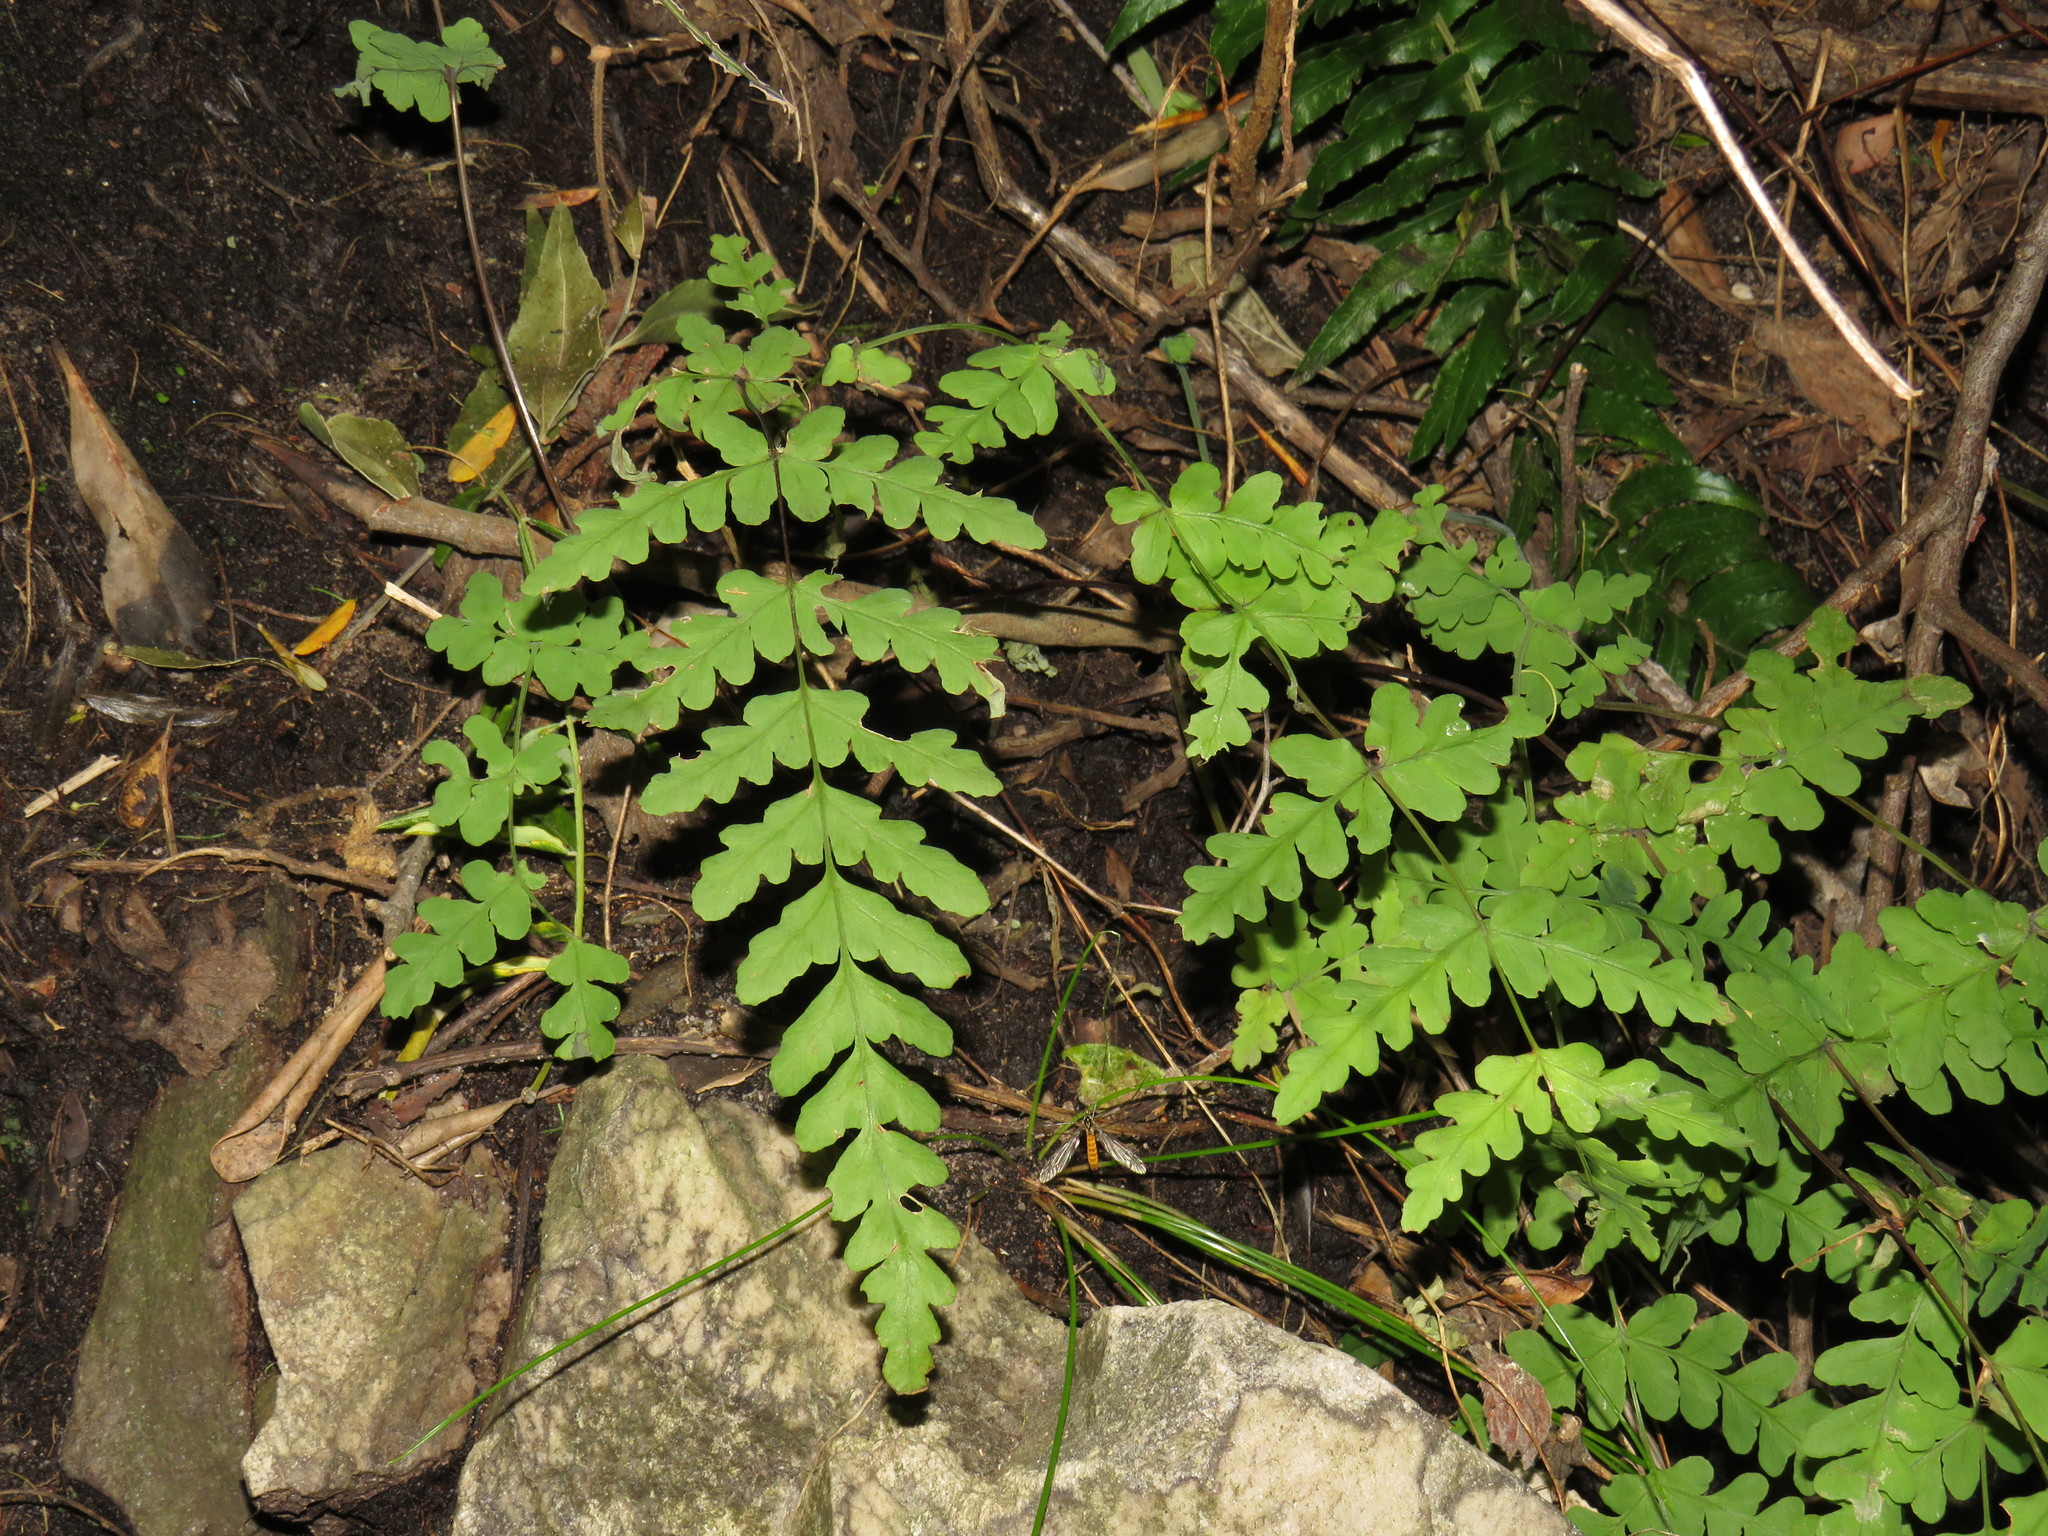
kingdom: Plantae
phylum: Tracheophyta
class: Polypodiopsida
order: Polypodiales
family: Dennstaedtiaceae
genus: Histiopteris
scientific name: Histiopteris incisa
